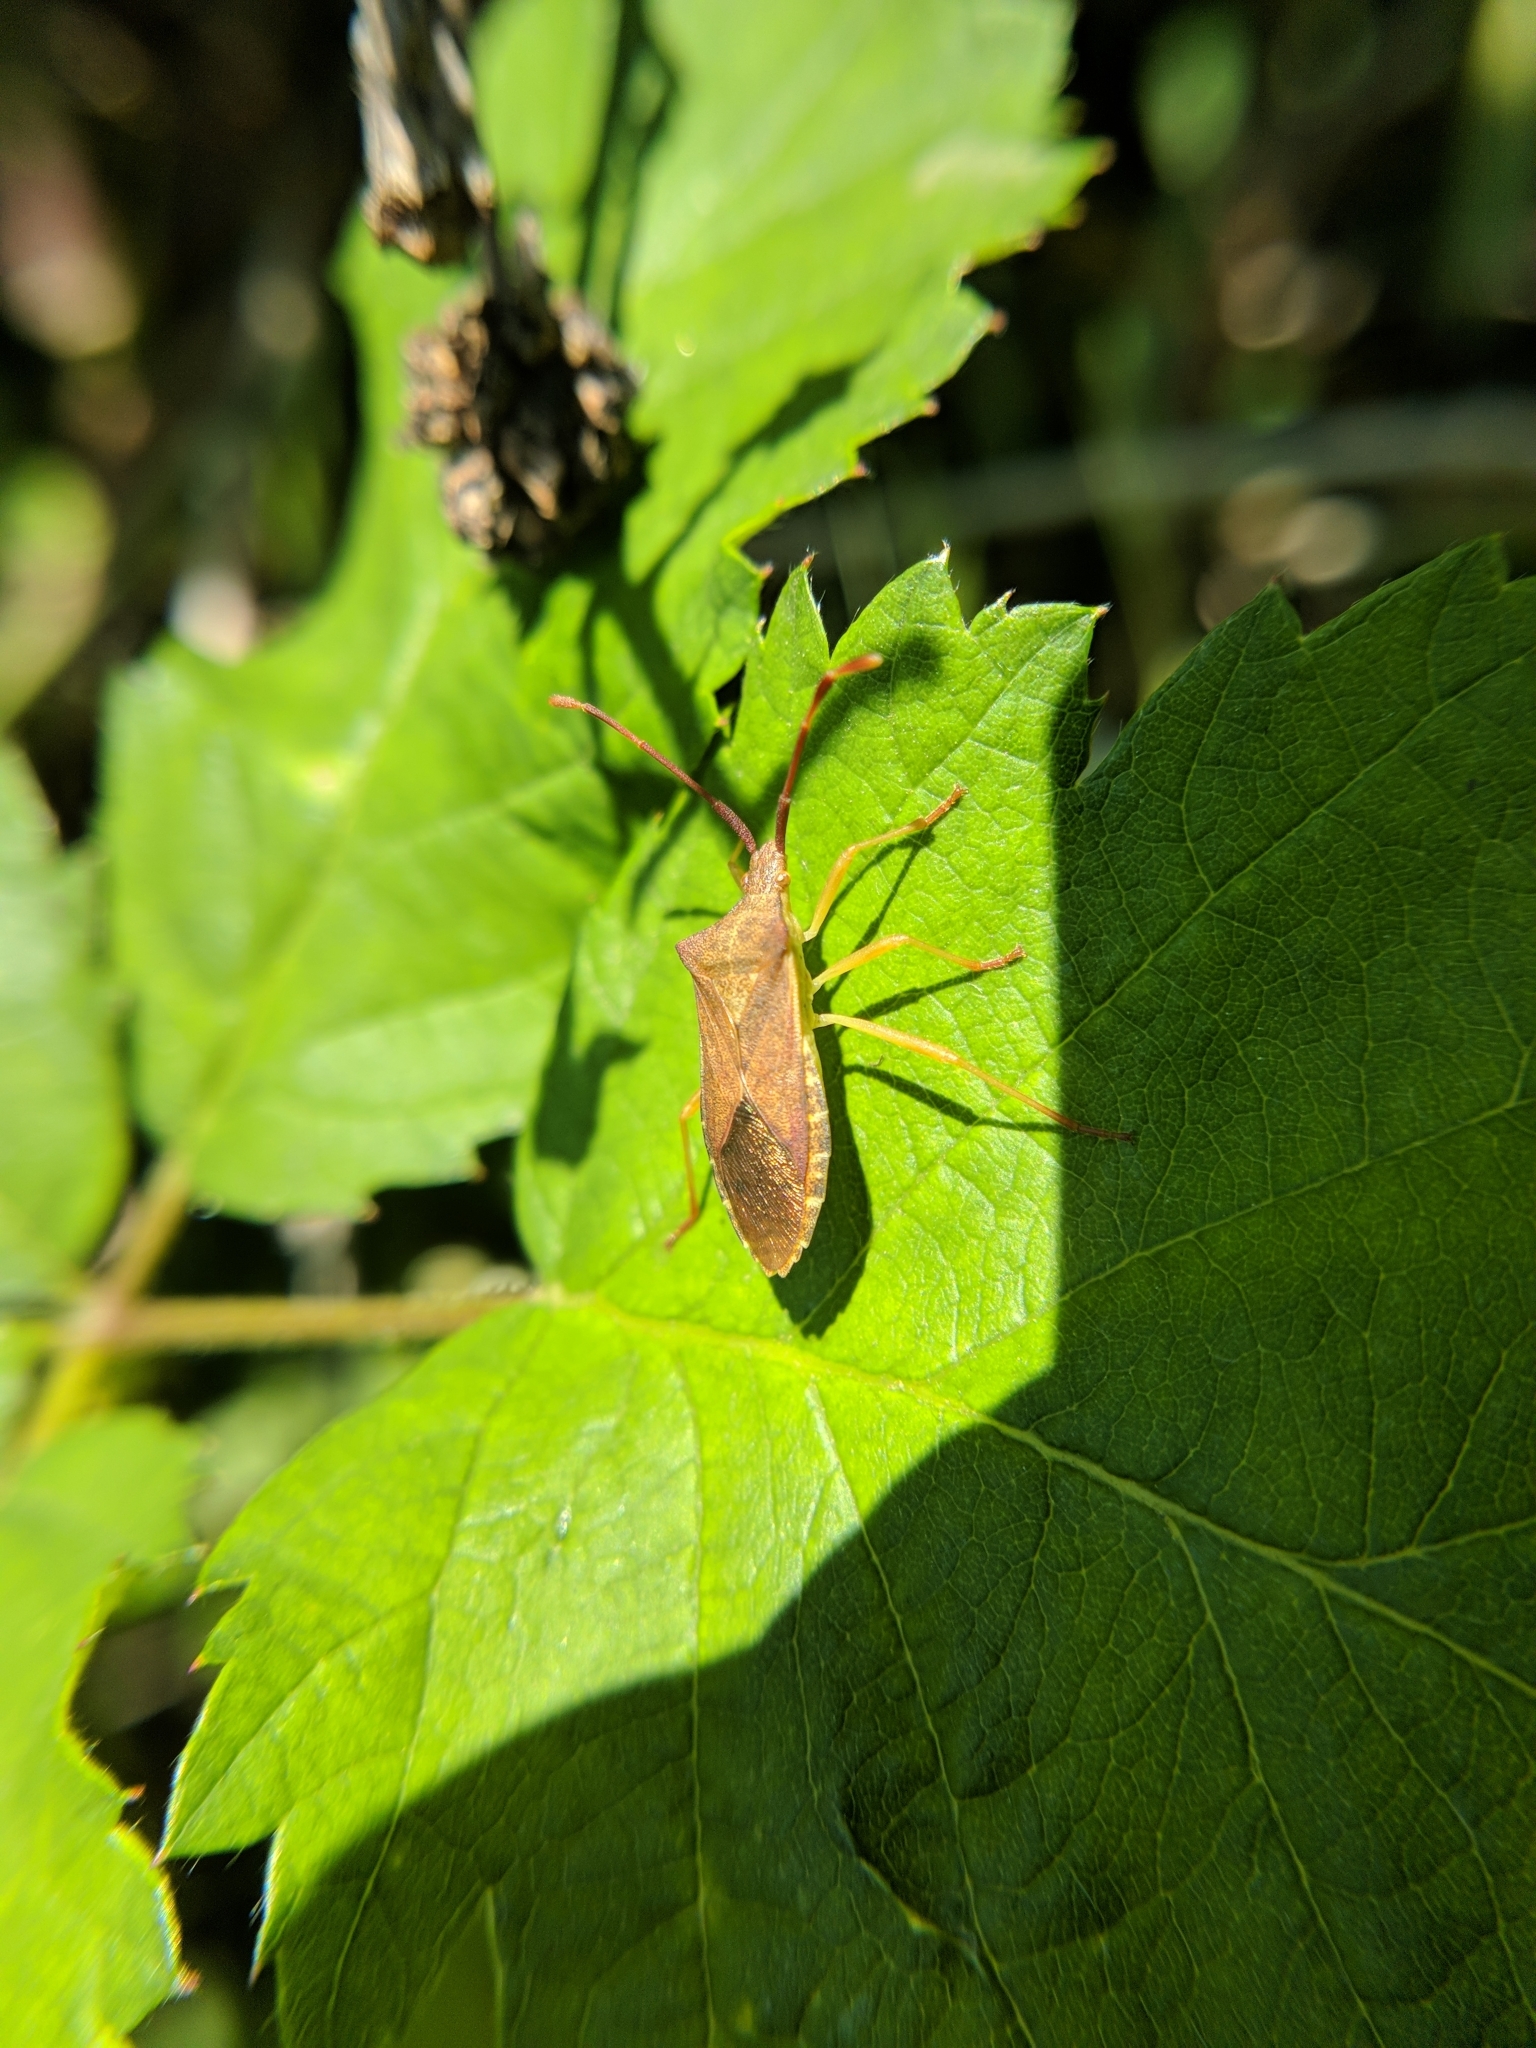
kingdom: Animalia
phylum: Arthropoda
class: Insecta
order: Hemiptera
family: Coreidae
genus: Gonocerus
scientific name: Gonocerus acuteangulatus
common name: Box bug
